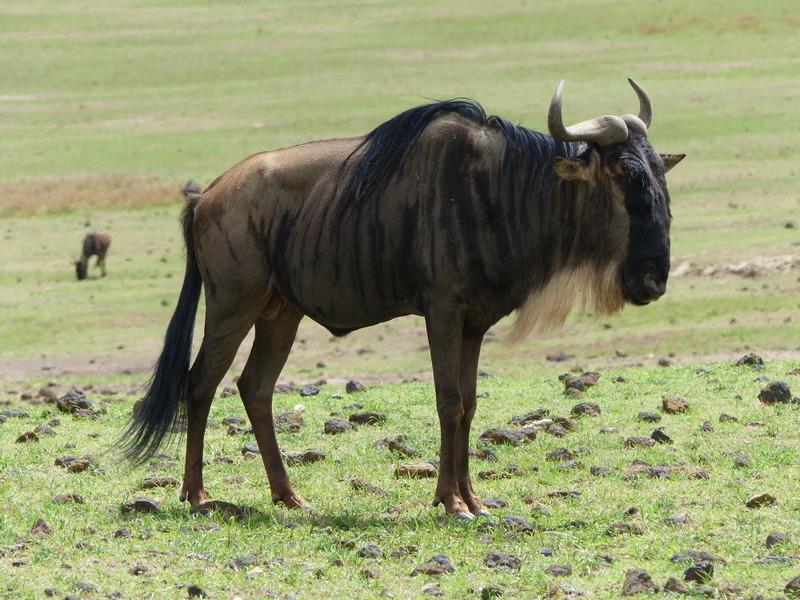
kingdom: Animalia
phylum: Chordata
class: Mammalia
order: Artiodactyla
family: Bovidae
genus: Connochaetes
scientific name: Connochaetes taurinus
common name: Blue wildebeest
